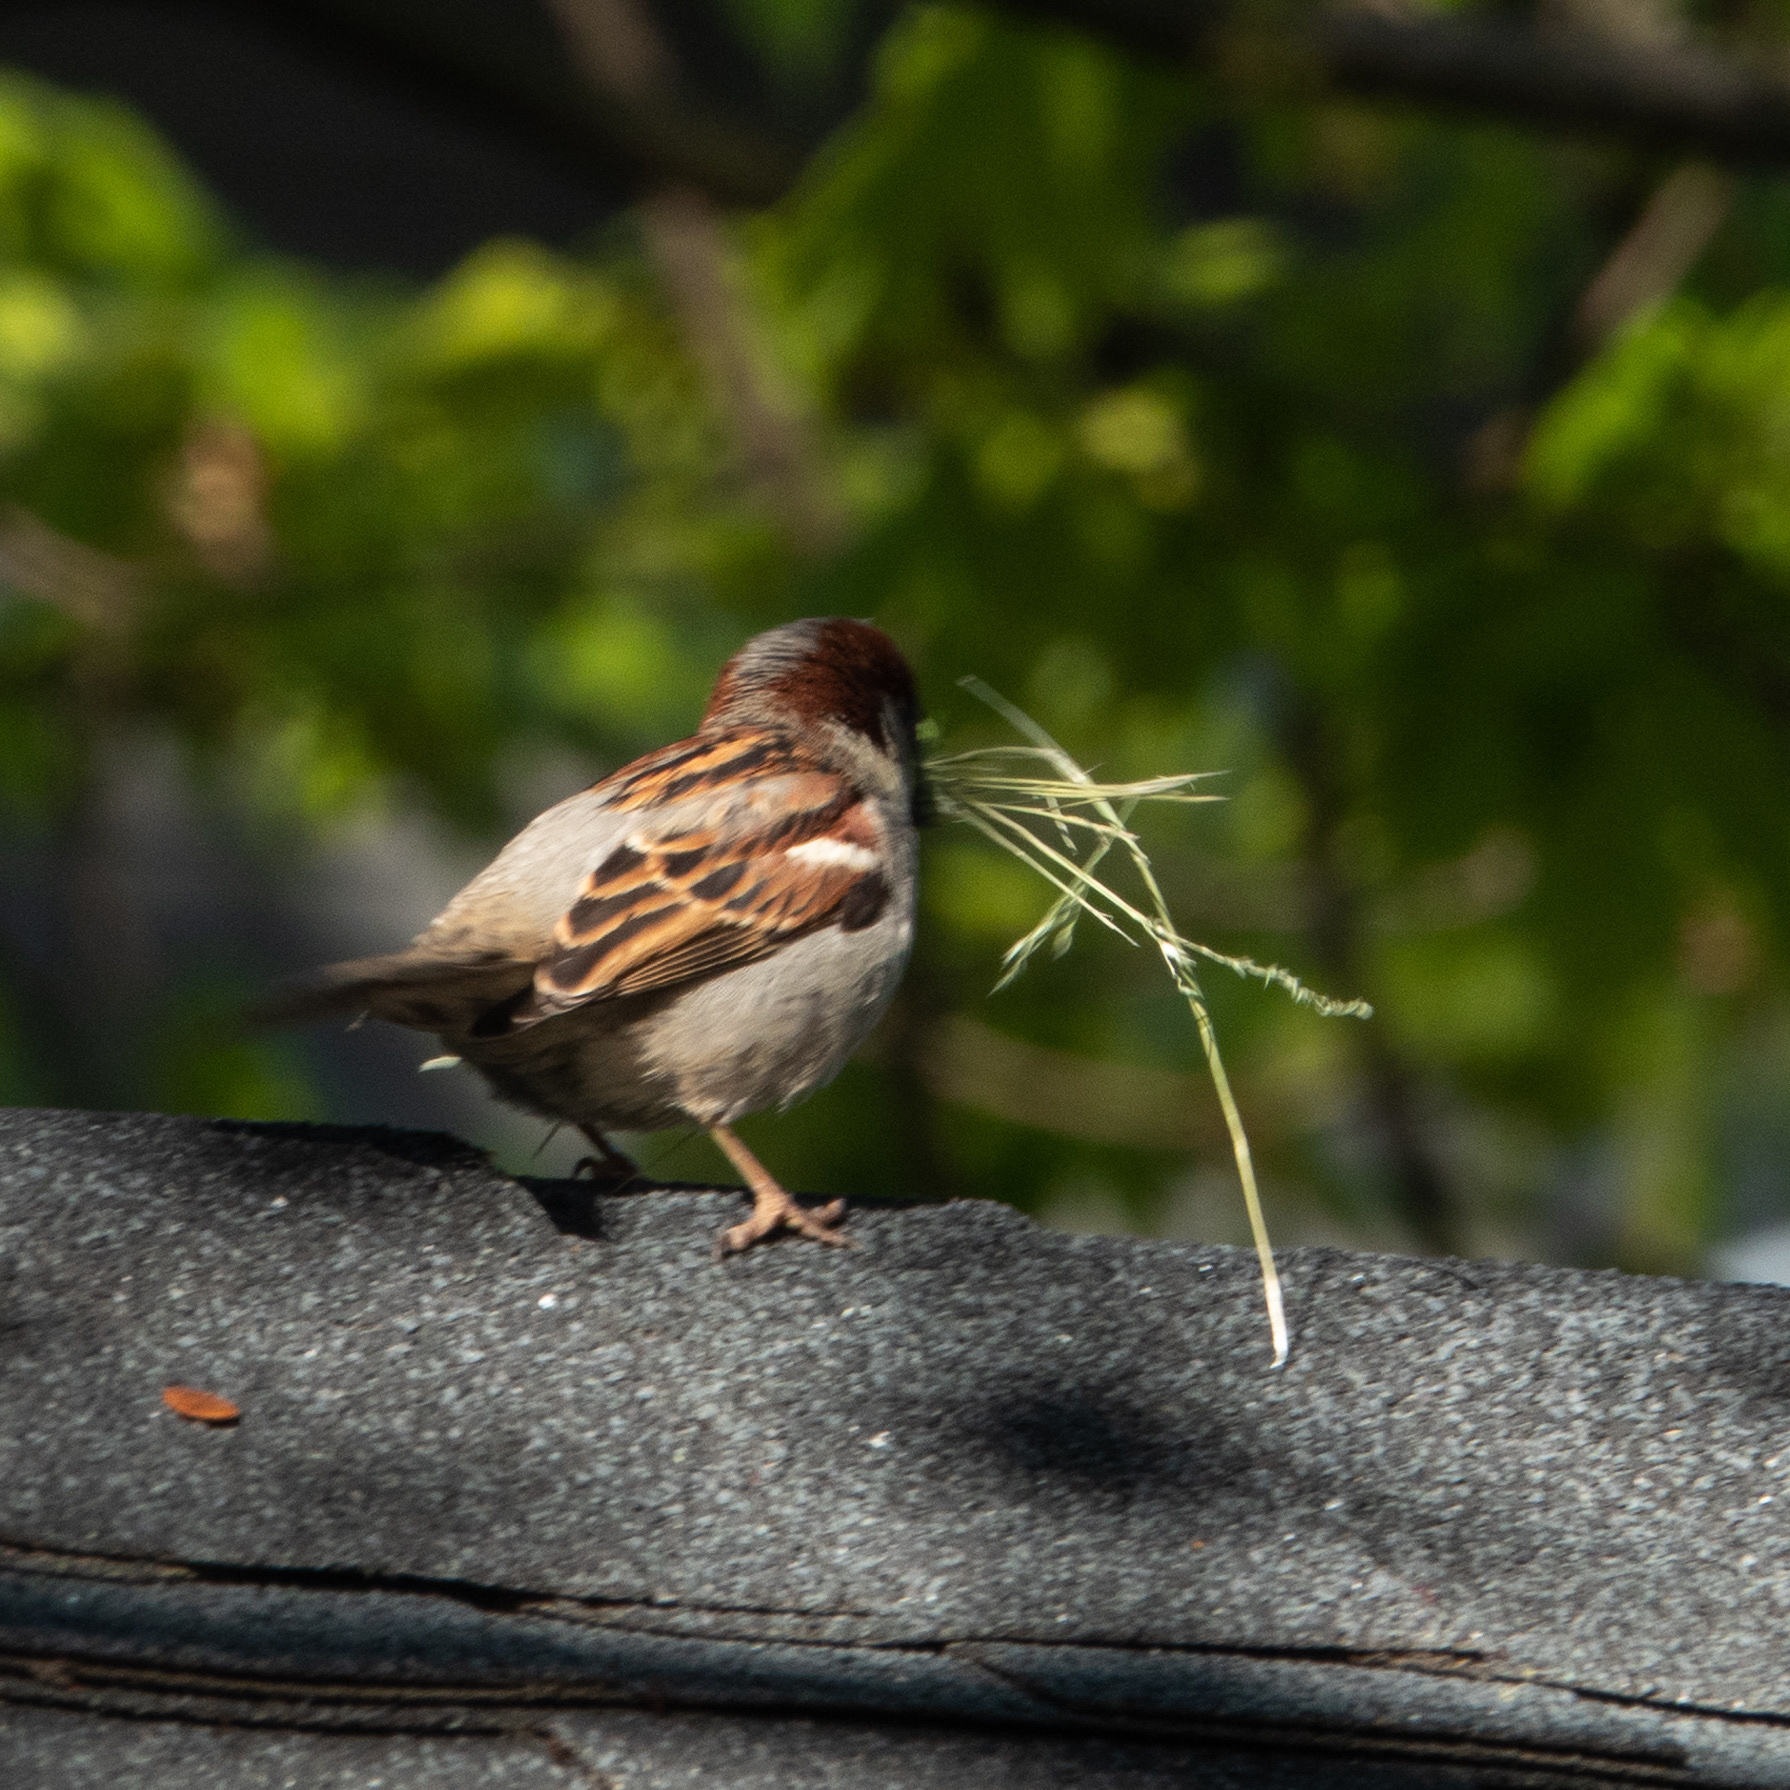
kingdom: Animalia
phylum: Chordata
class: Aves
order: Passeriformes
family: Passeridae
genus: Passer
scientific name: Passer domesticus
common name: House sparrow
